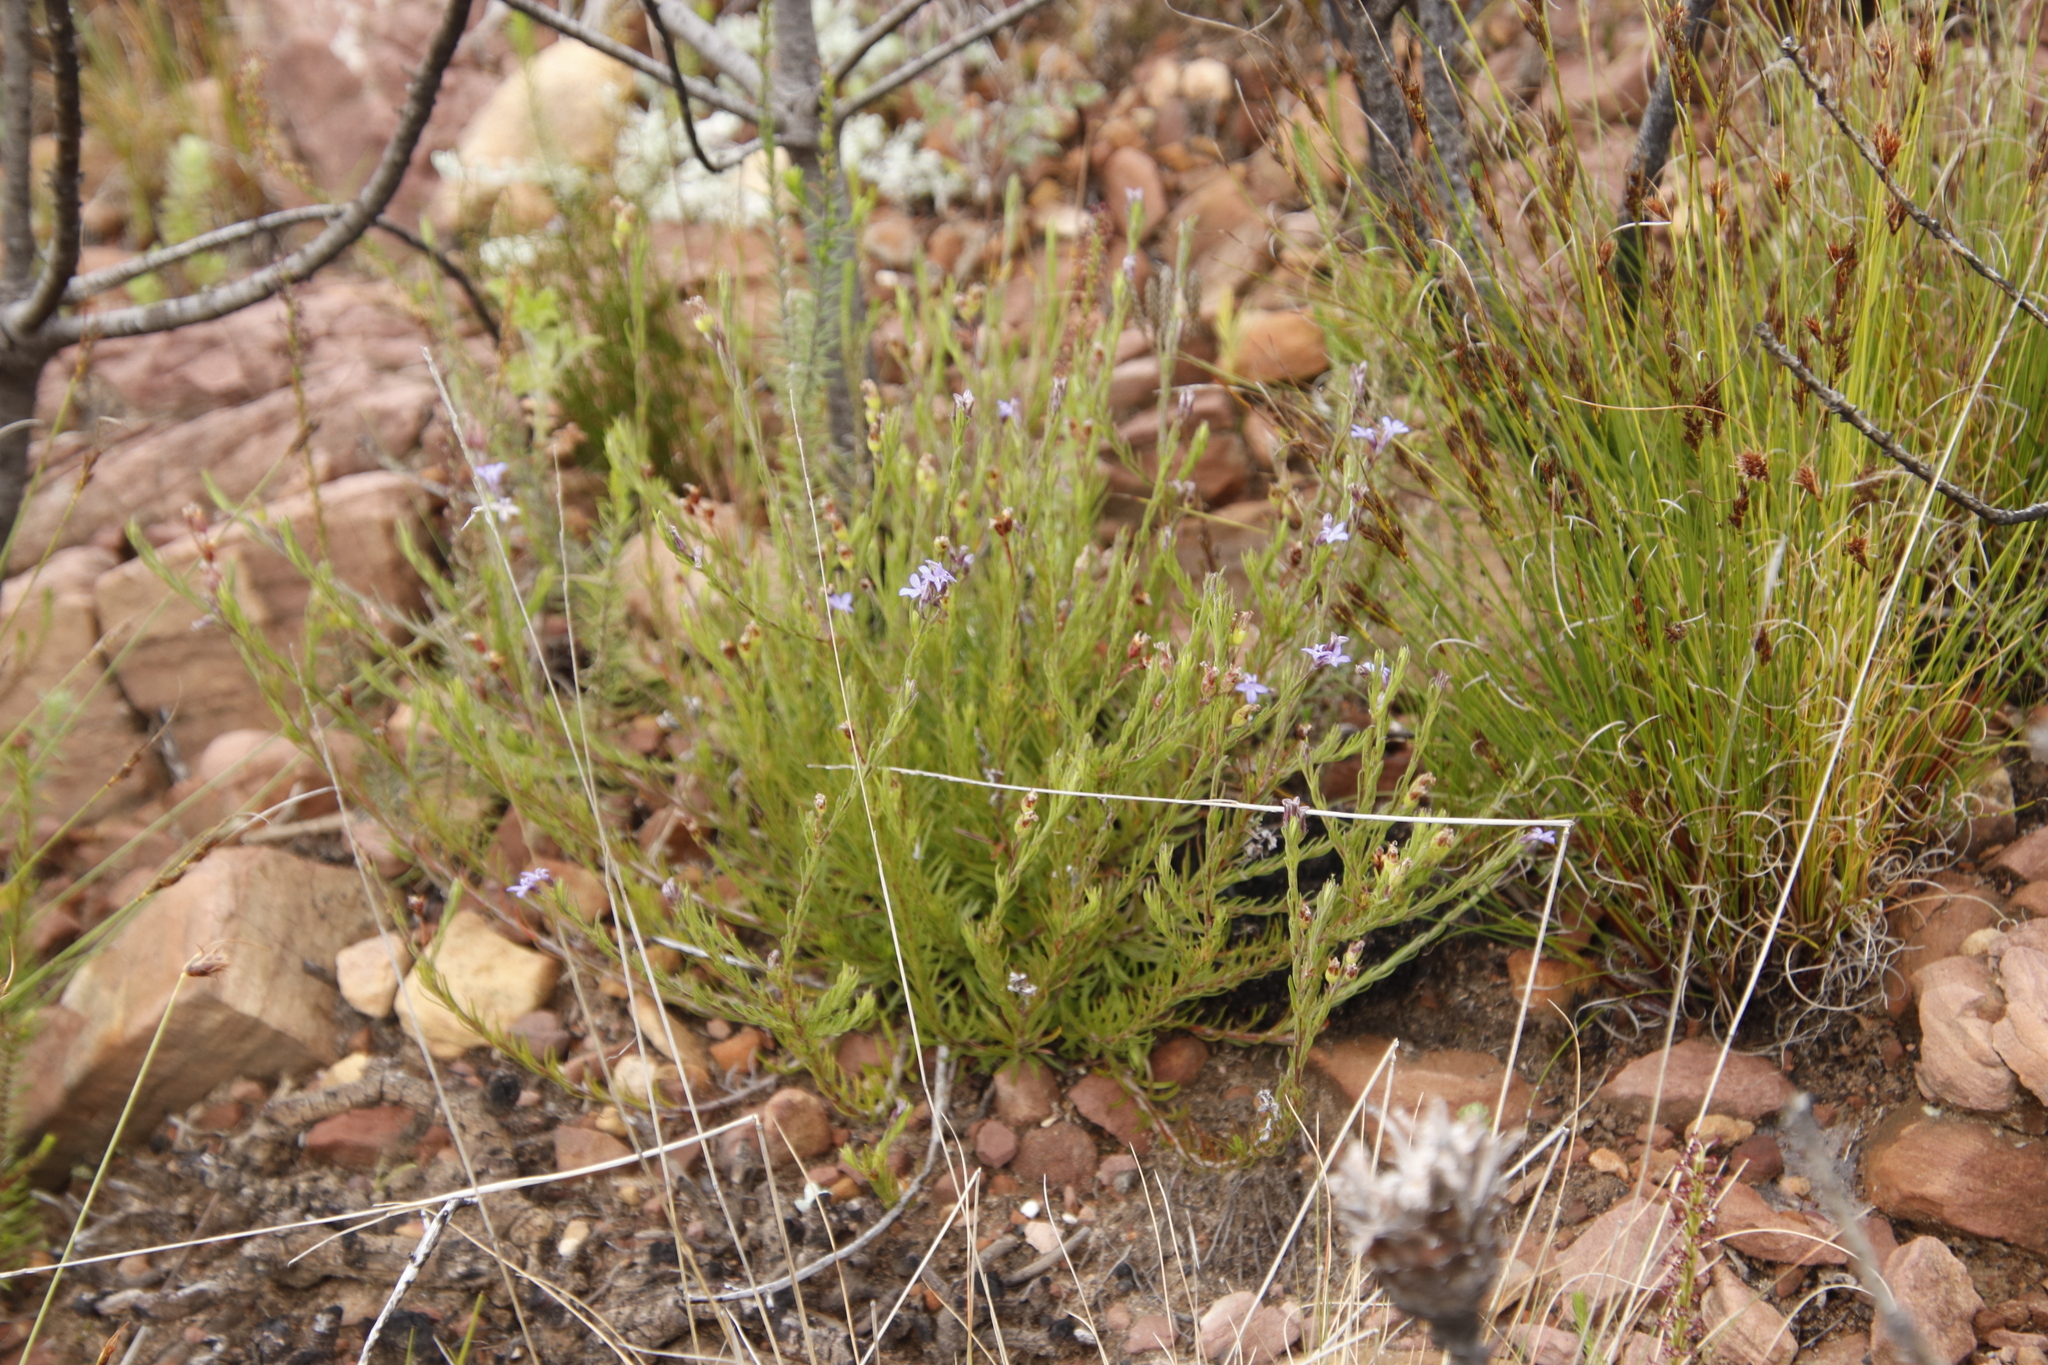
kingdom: Plantae
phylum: Tracheophyta
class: Magnoliopsida
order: Asterales
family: Campanulaceae
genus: Lobelia
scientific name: Lobelia pinifolia
